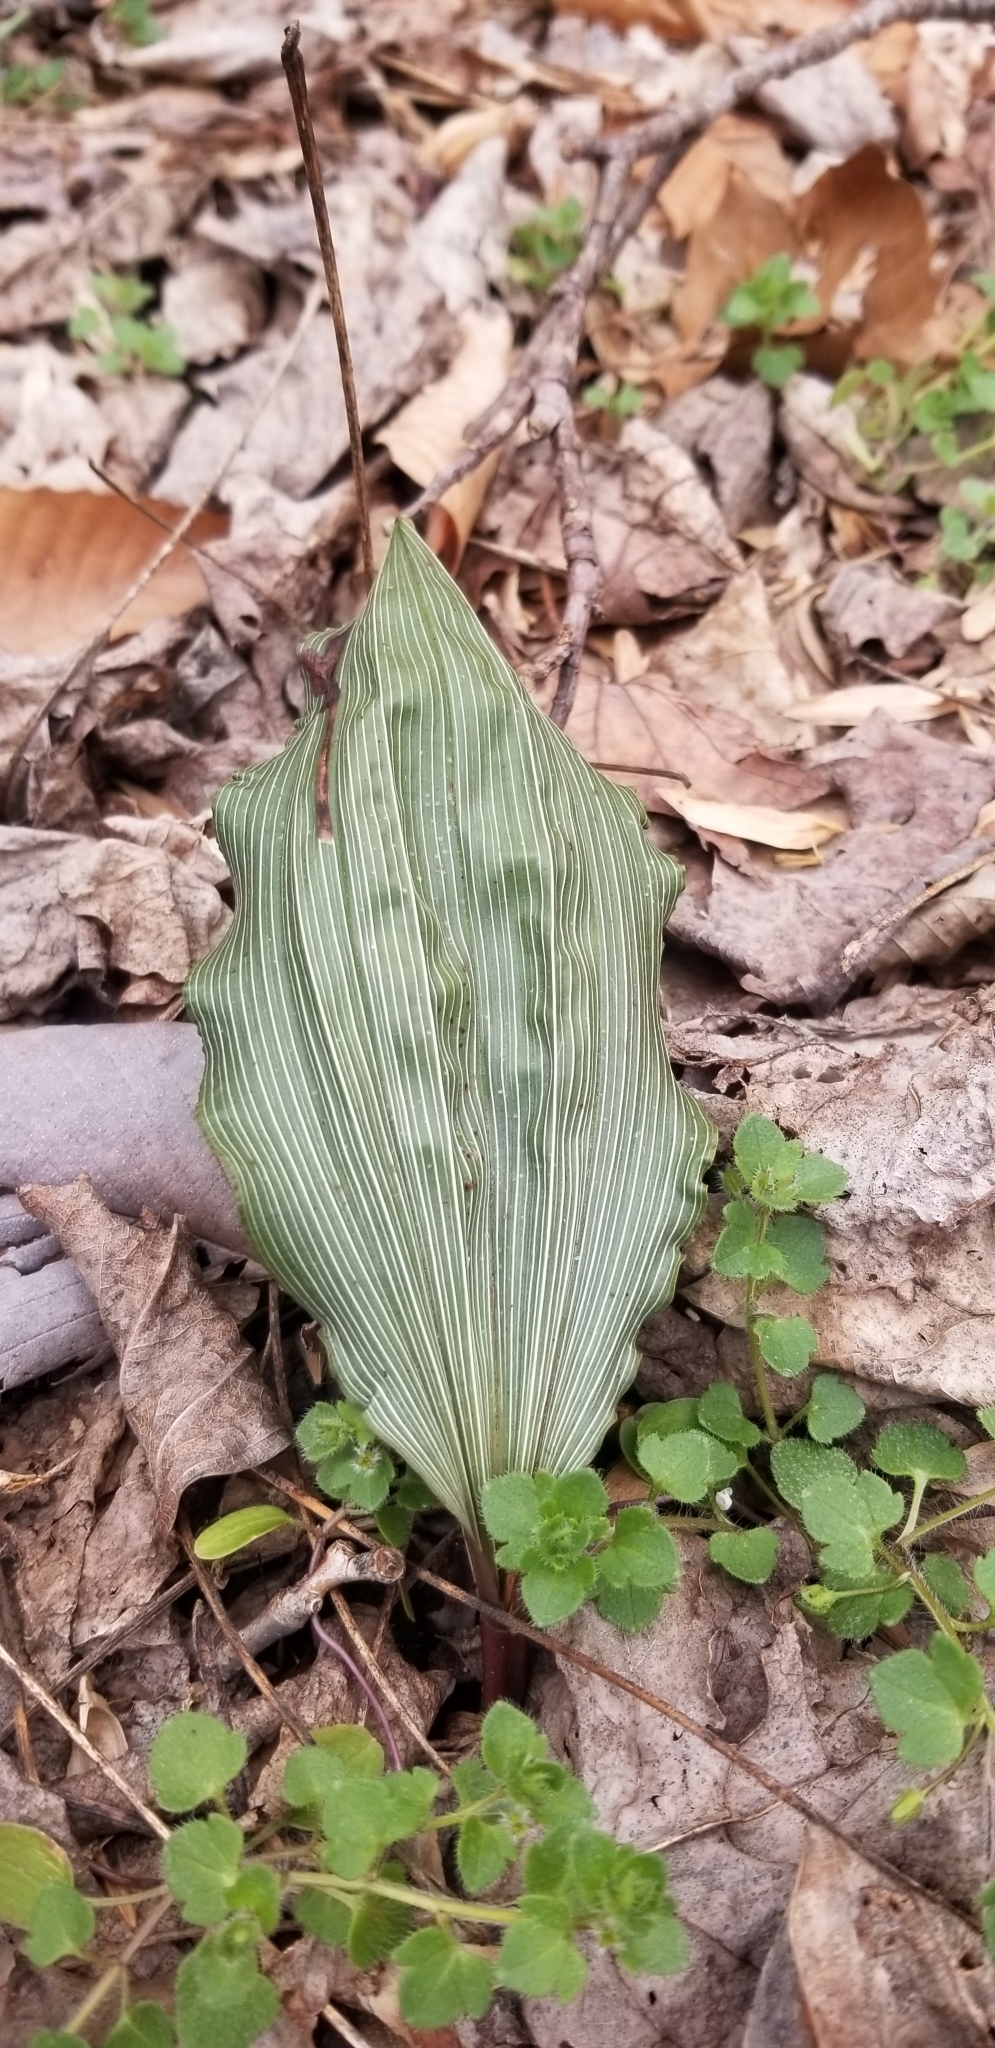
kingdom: Plantae
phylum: Tracheophyta
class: Liliopsida
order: Asparagales
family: Orchidaceae
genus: Aplectrum
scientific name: Aplectrum hyemale
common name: Adam-and-eve
